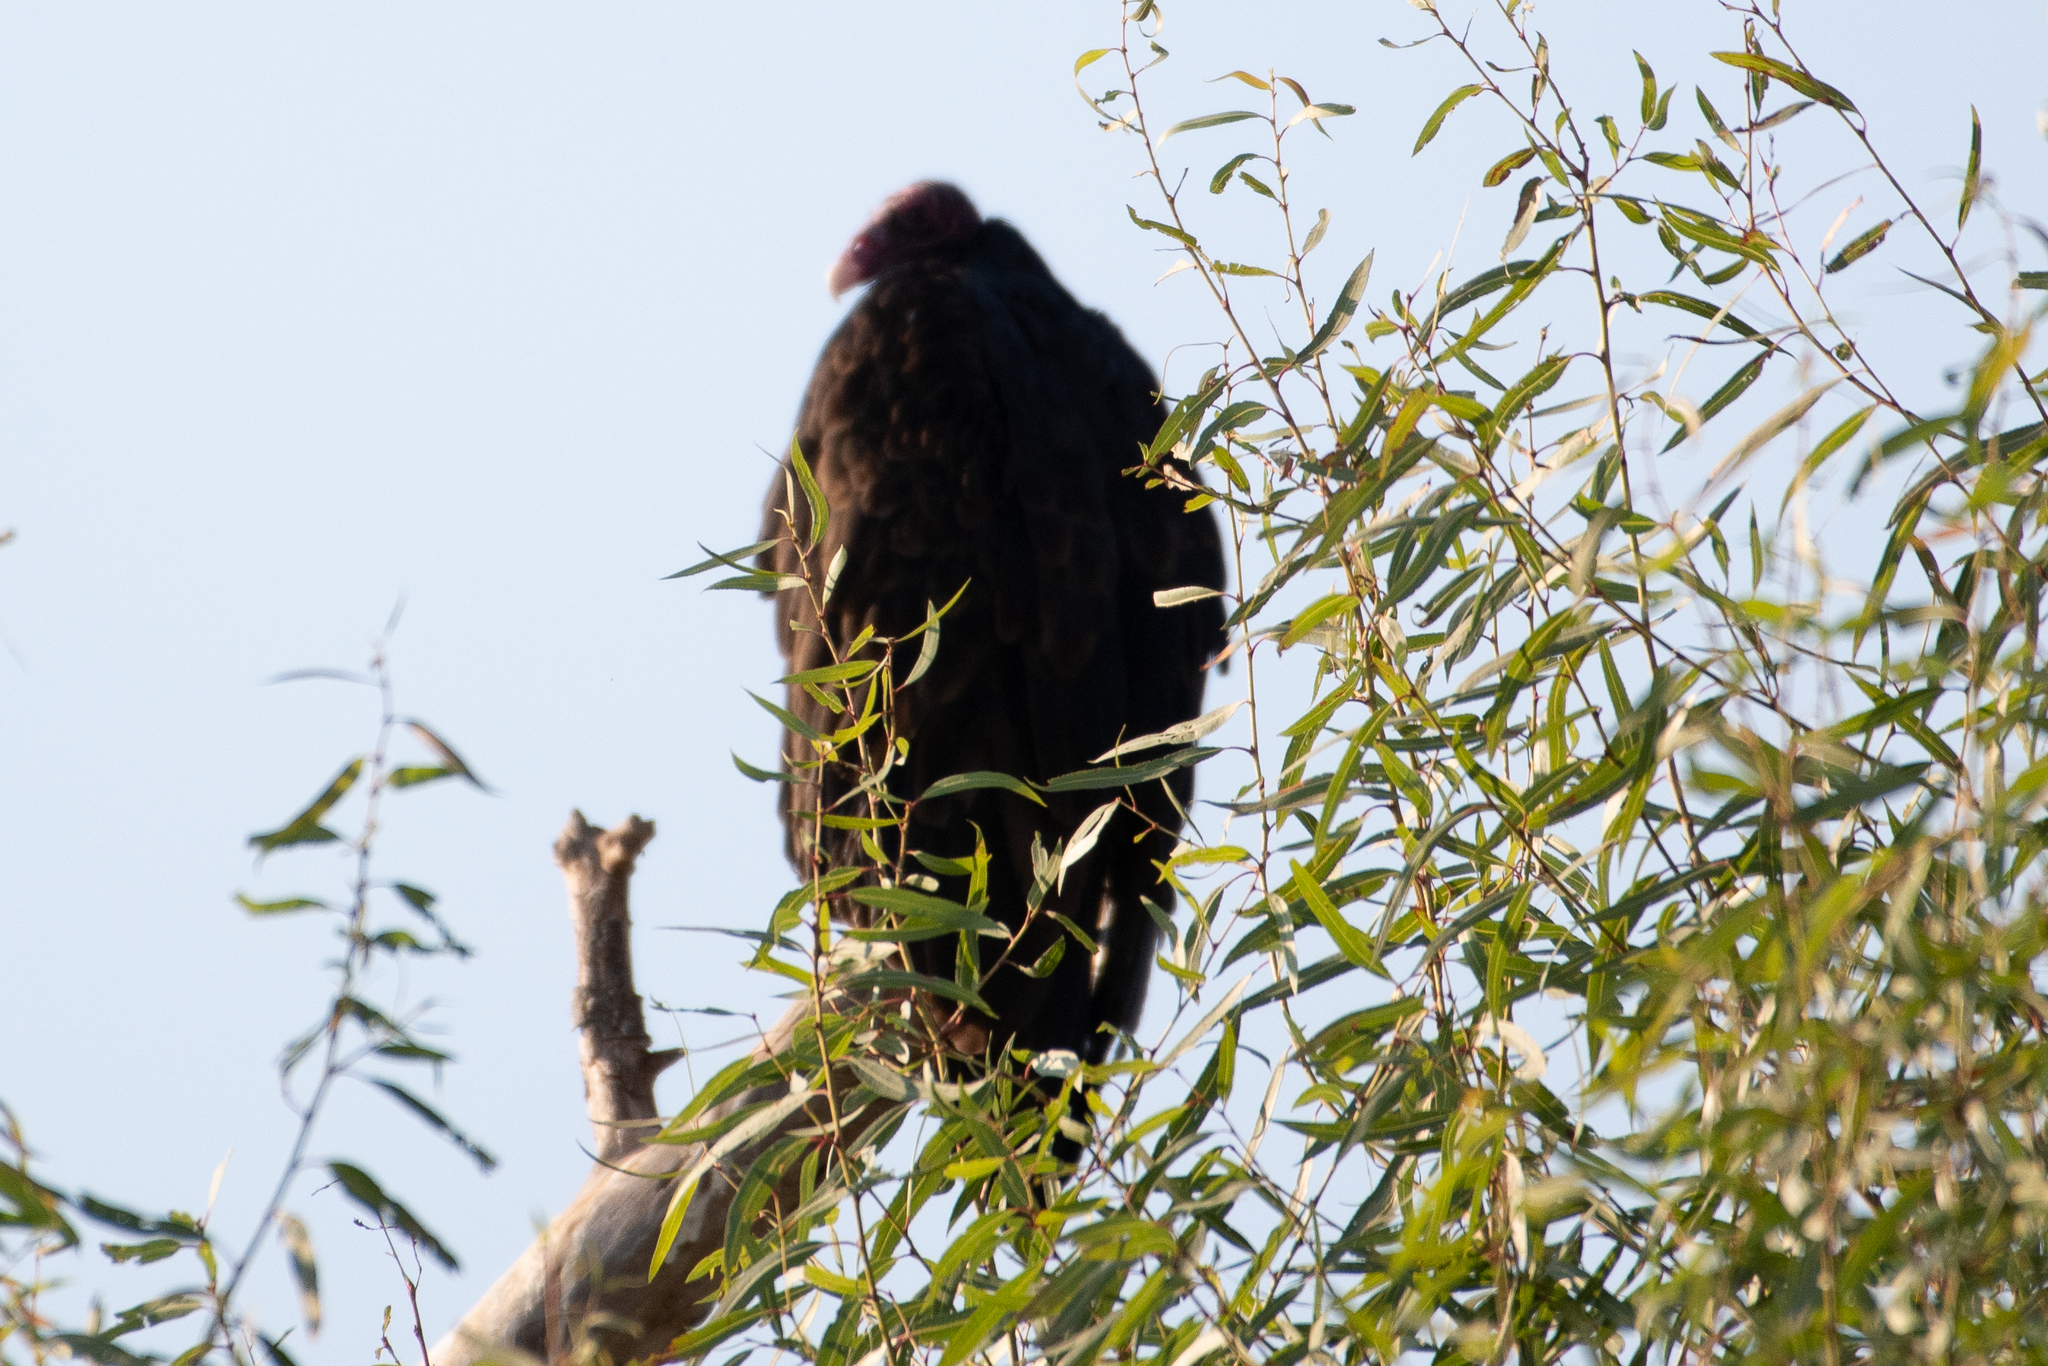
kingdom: Animalia
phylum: Chordata
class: Aves
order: Accipitriformes
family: Cathartidae
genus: Cathartes
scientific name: Cathartes aura
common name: Turkey vulture
